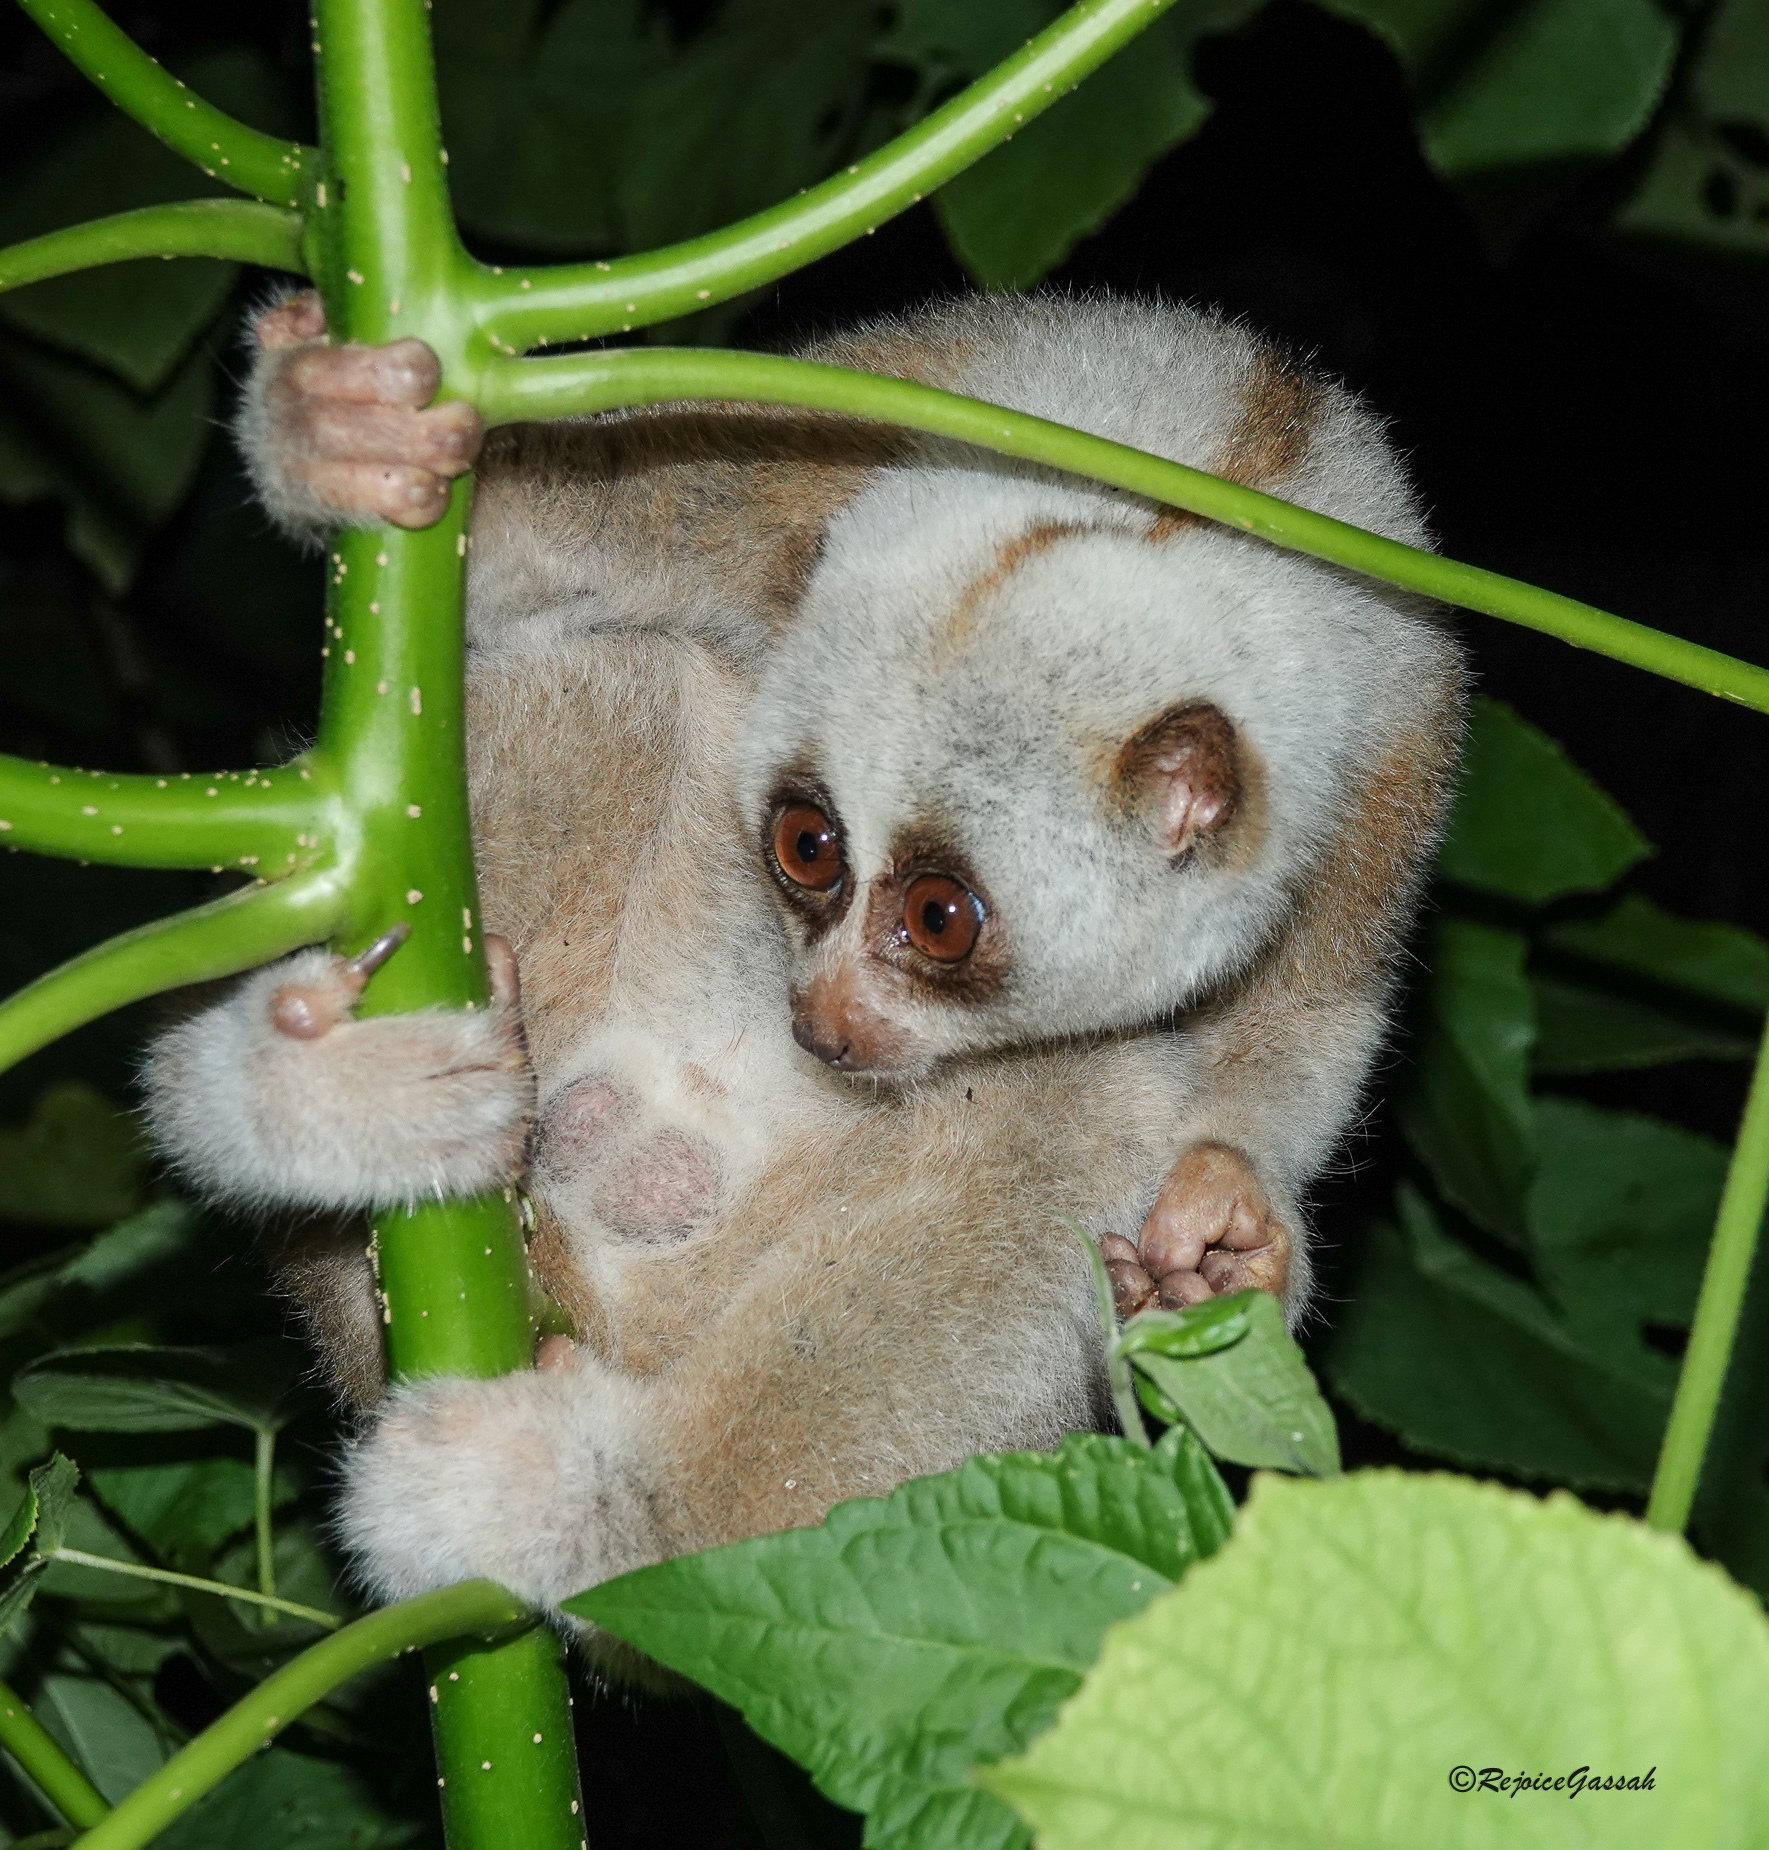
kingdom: Animalia
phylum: Chordata
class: Mammalia
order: Primates
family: Lorisidae
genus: Nycticebus
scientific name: Nycticebus bengalensis
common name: Bengal slow loris
